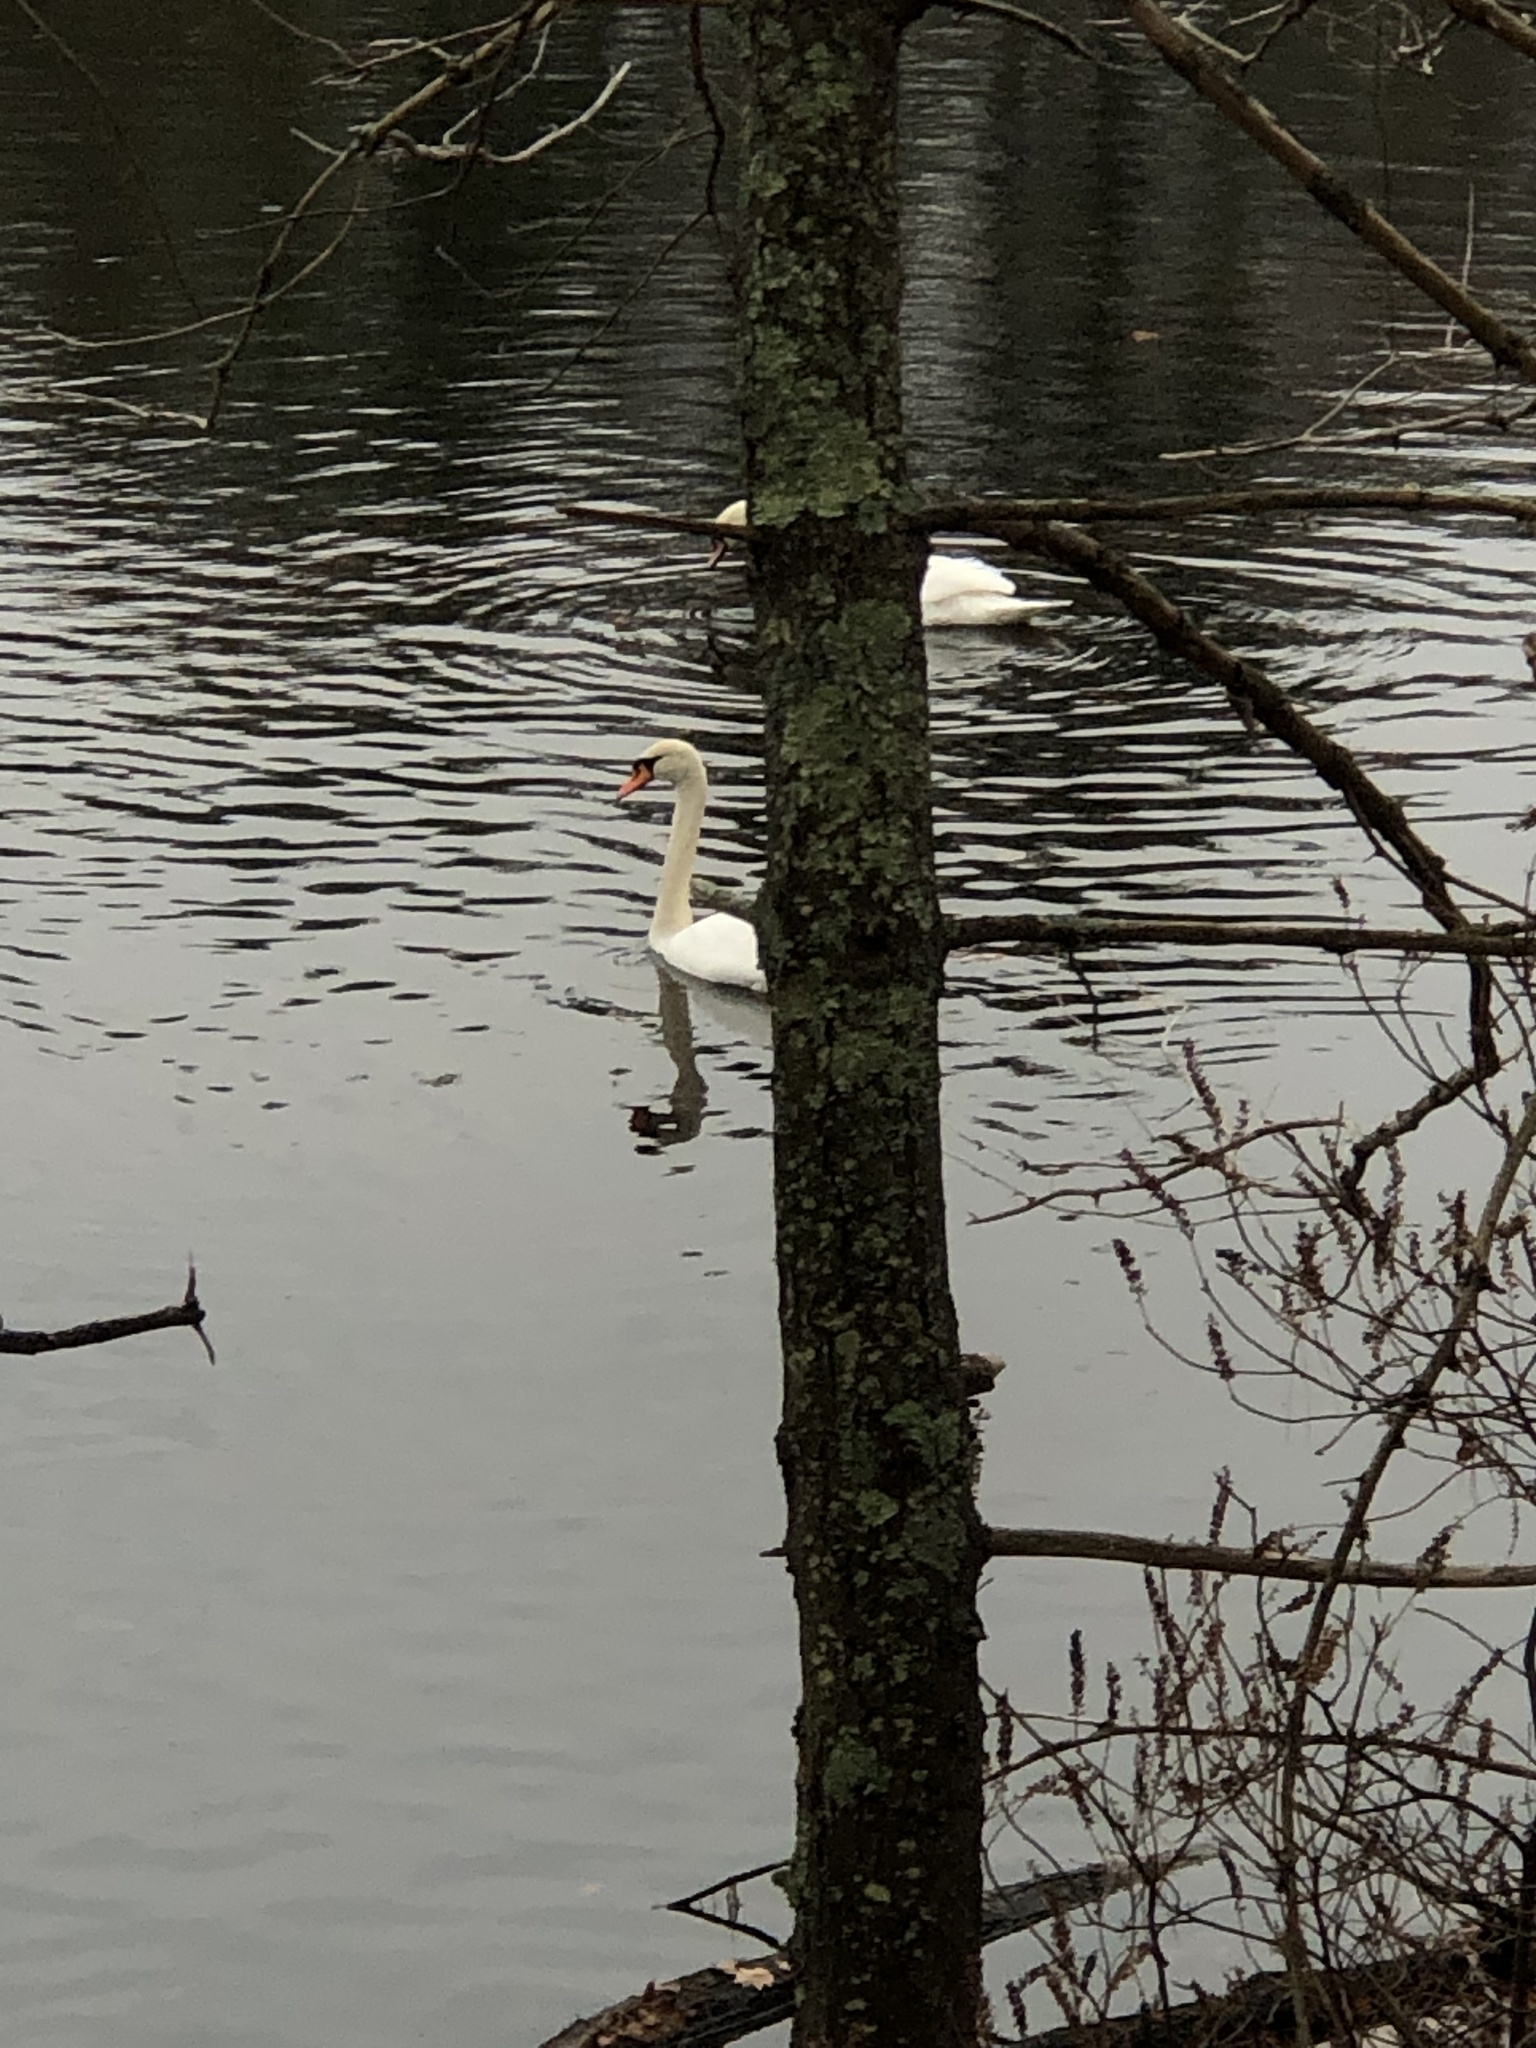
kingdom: Animalia
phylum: Chordata
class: Aves
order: Anseriformes
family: Anatidae
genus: Cygnus
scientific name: Cygnus olor
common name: Mute swan
